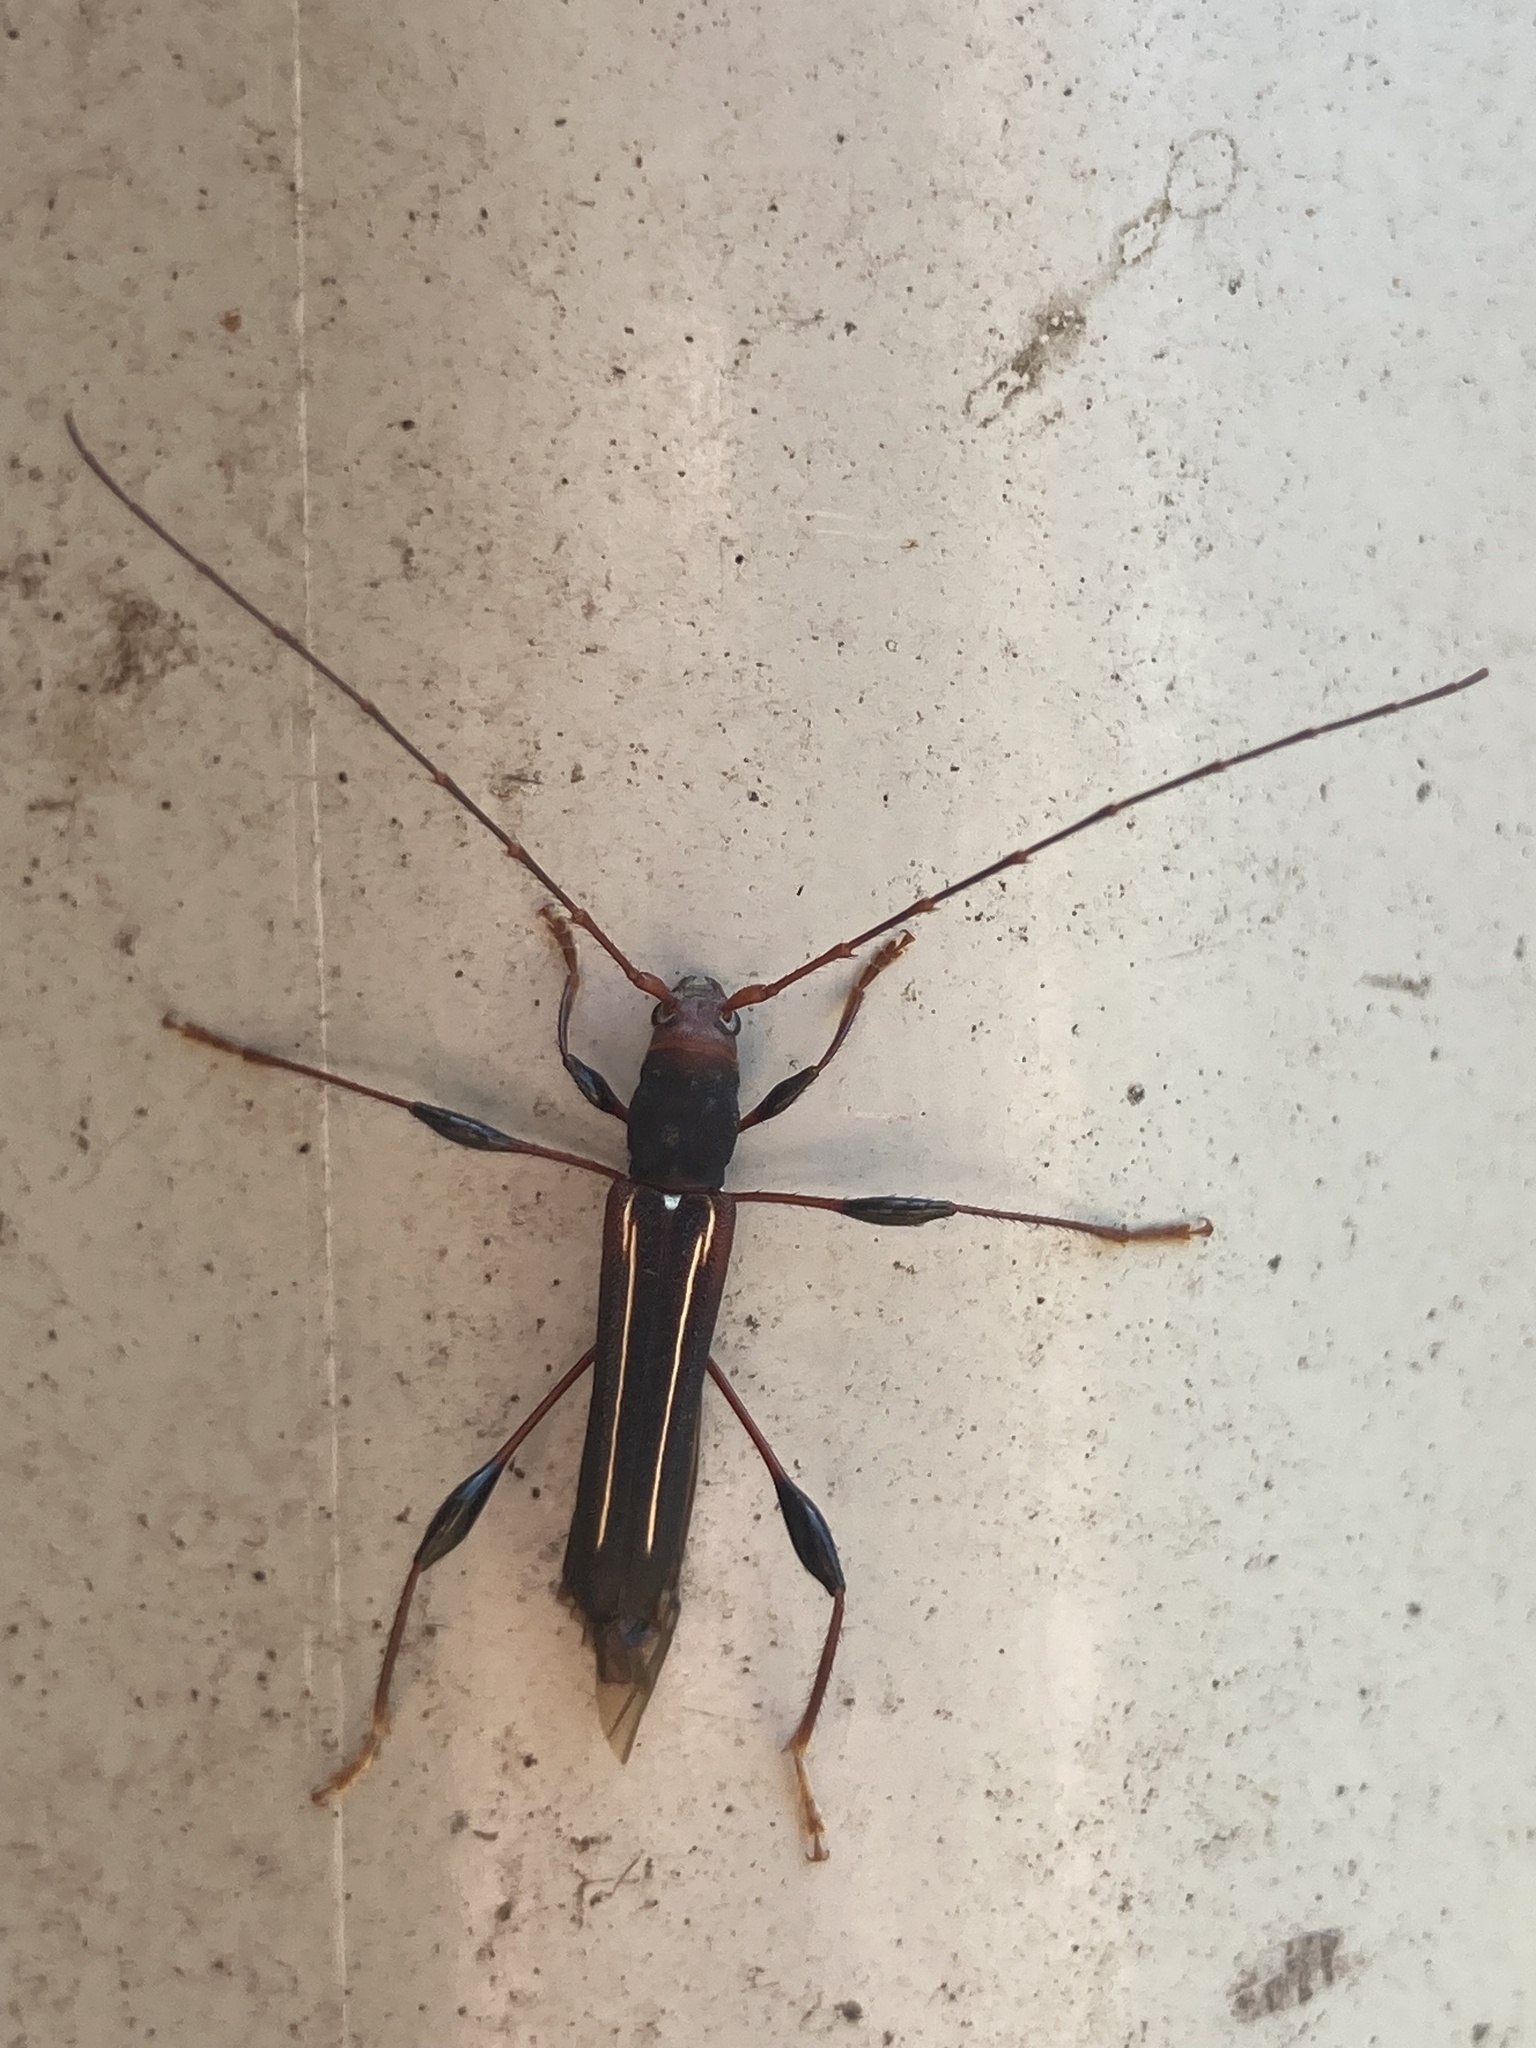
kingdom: Animalia
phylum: Arthropoda
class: Insecta
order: Coleoptera
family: Cerambycidae
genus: Amphirhoe
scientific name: Amphirhoe sloanei
